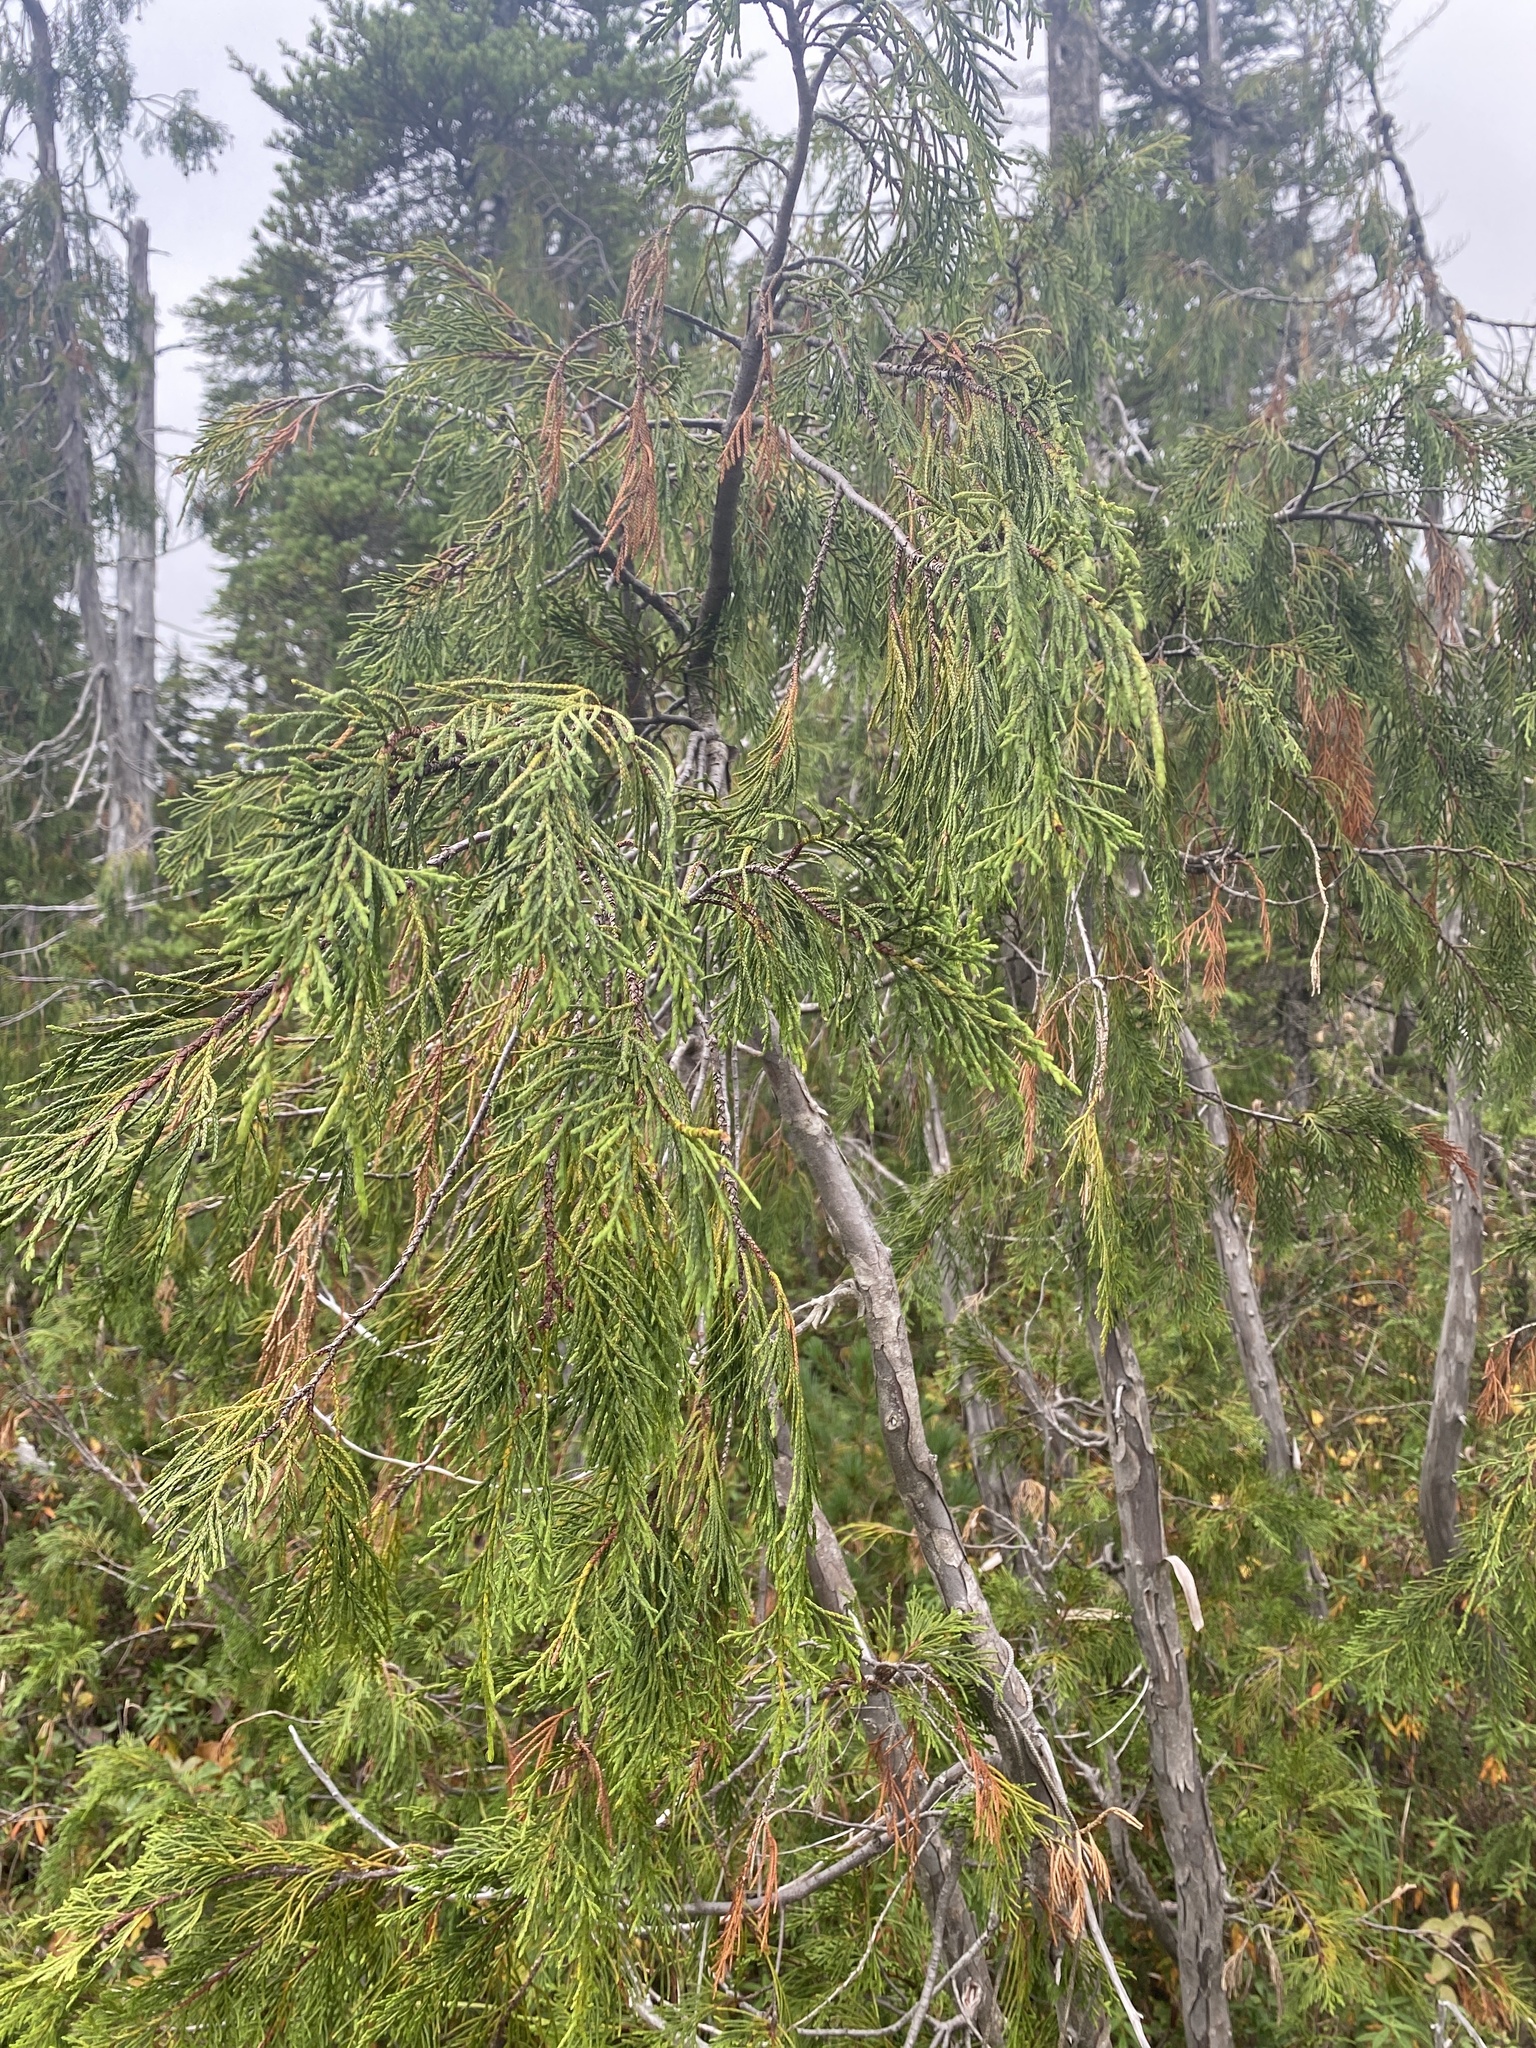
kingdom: Plantae
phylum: Tracheophyta
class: Pinopsida
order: Pinales
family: Cupressaceae
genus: Xanthocyparis
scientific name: Xanthocyparis nootkatensis
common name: Nootka cypress
